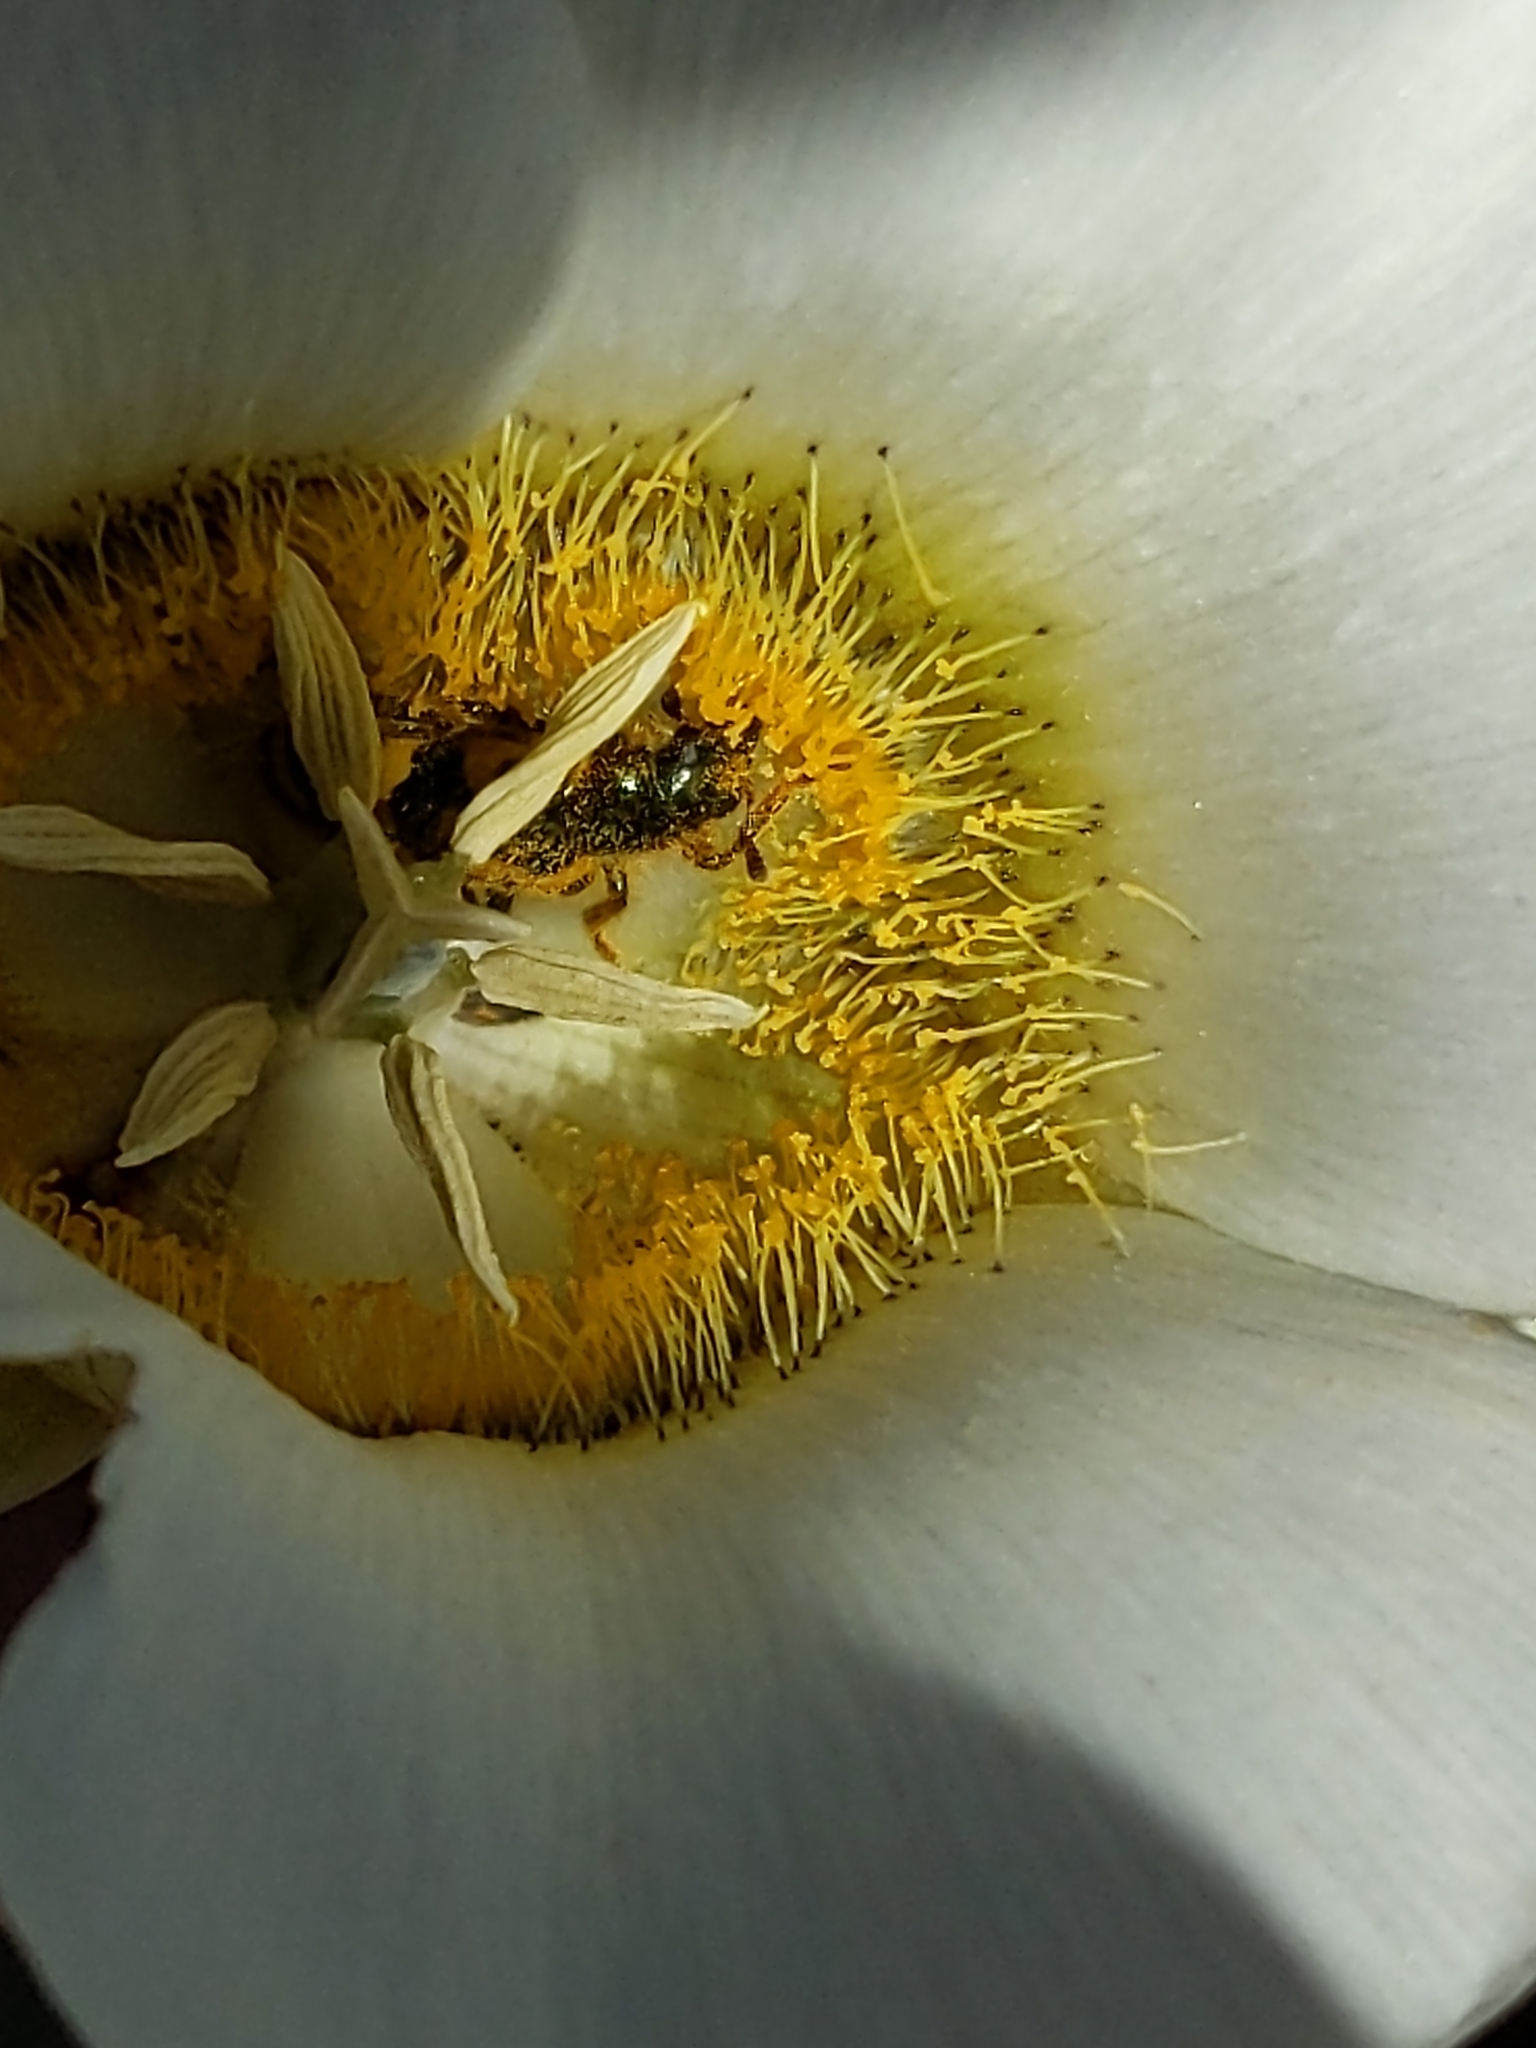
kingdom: Animalia
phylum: Arthropoda
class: Insecta
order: Coleoptera
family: Cleridae
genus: Trichodes
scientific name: Trichodes ornatus
